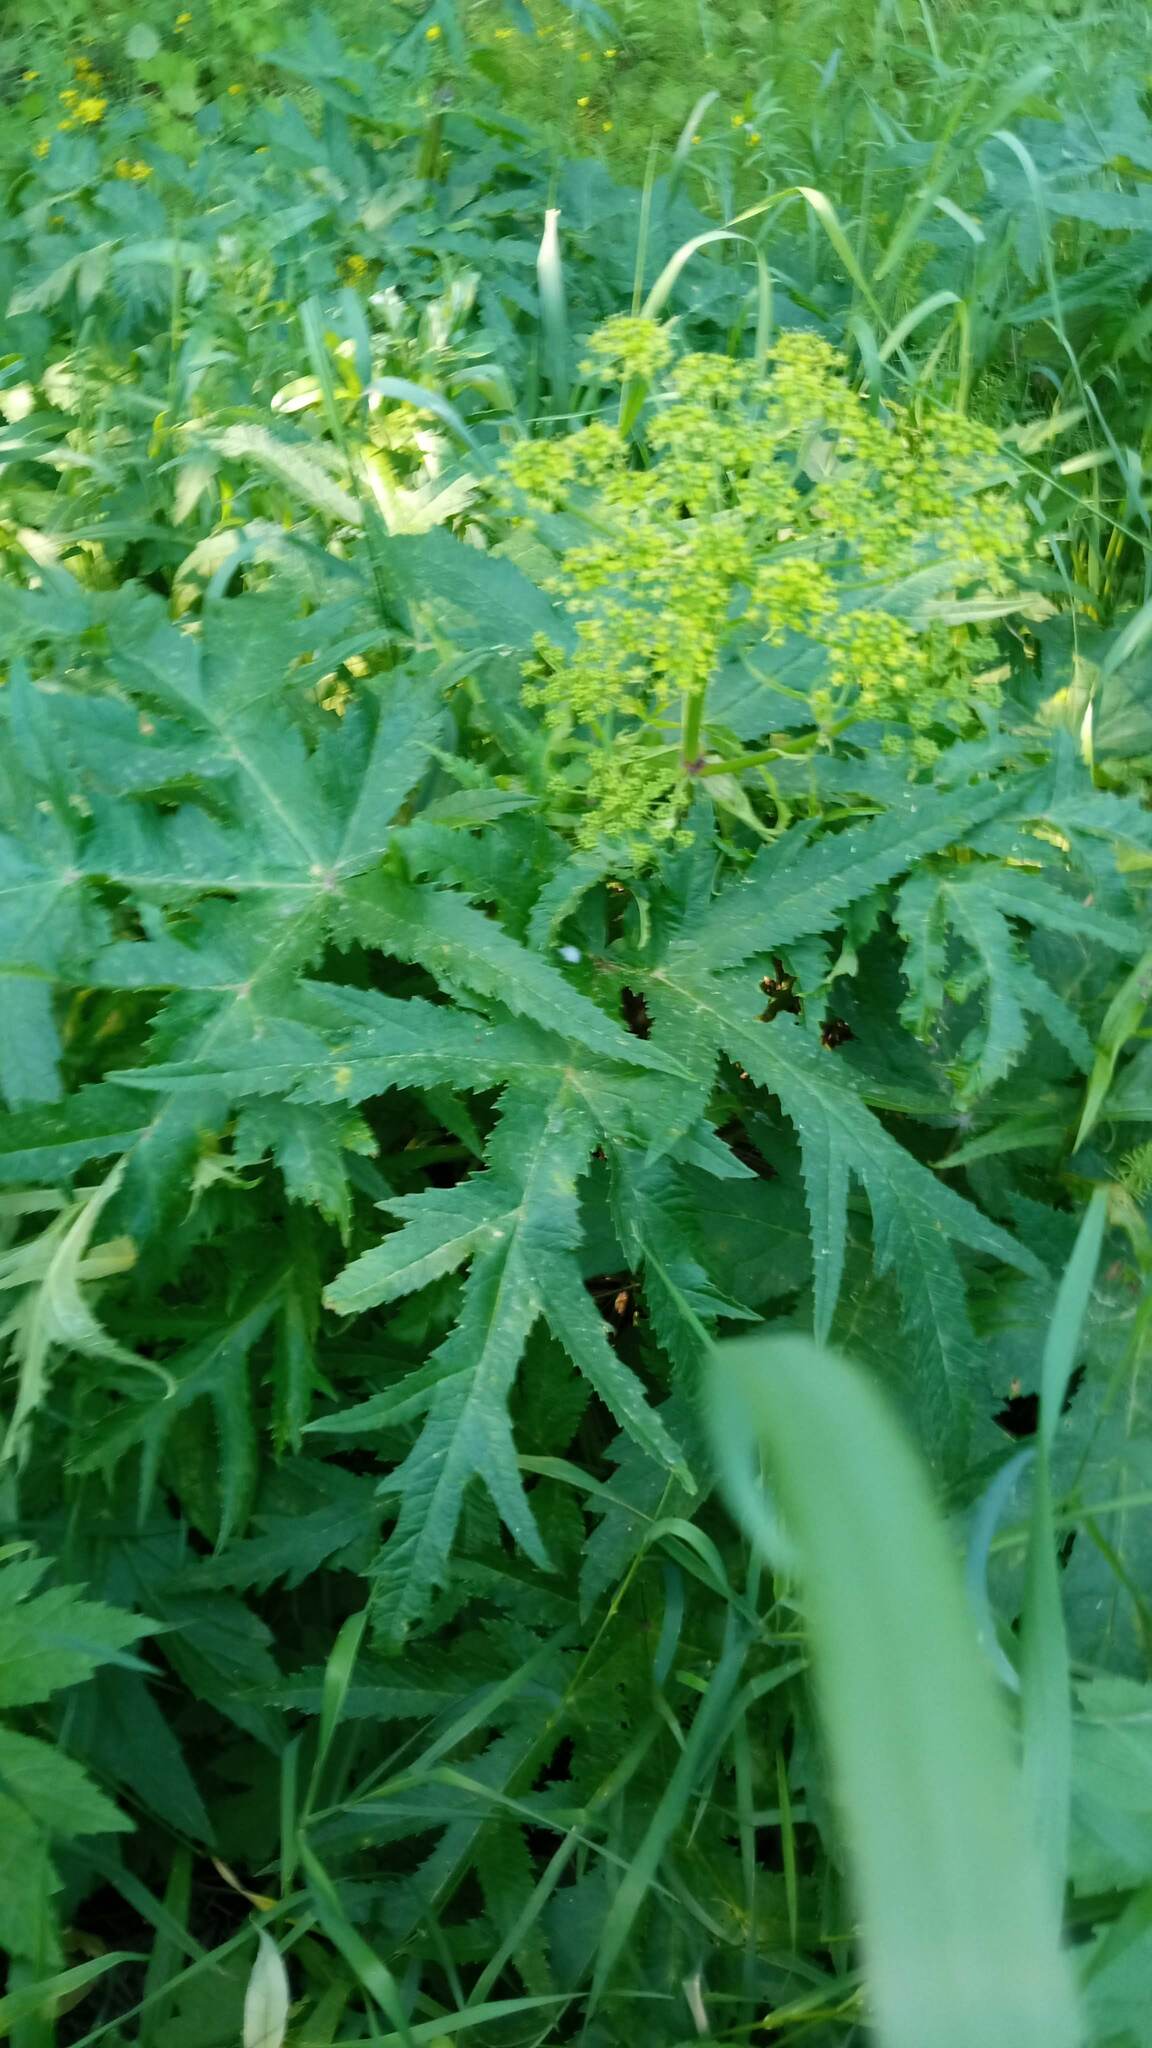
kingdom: Plantae
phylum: Tracheophyta
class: Magnoliopsida
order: Apiales
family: Apiaceae
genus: Heracleum
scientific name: Heracleum sphondylium
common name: Hogweed
